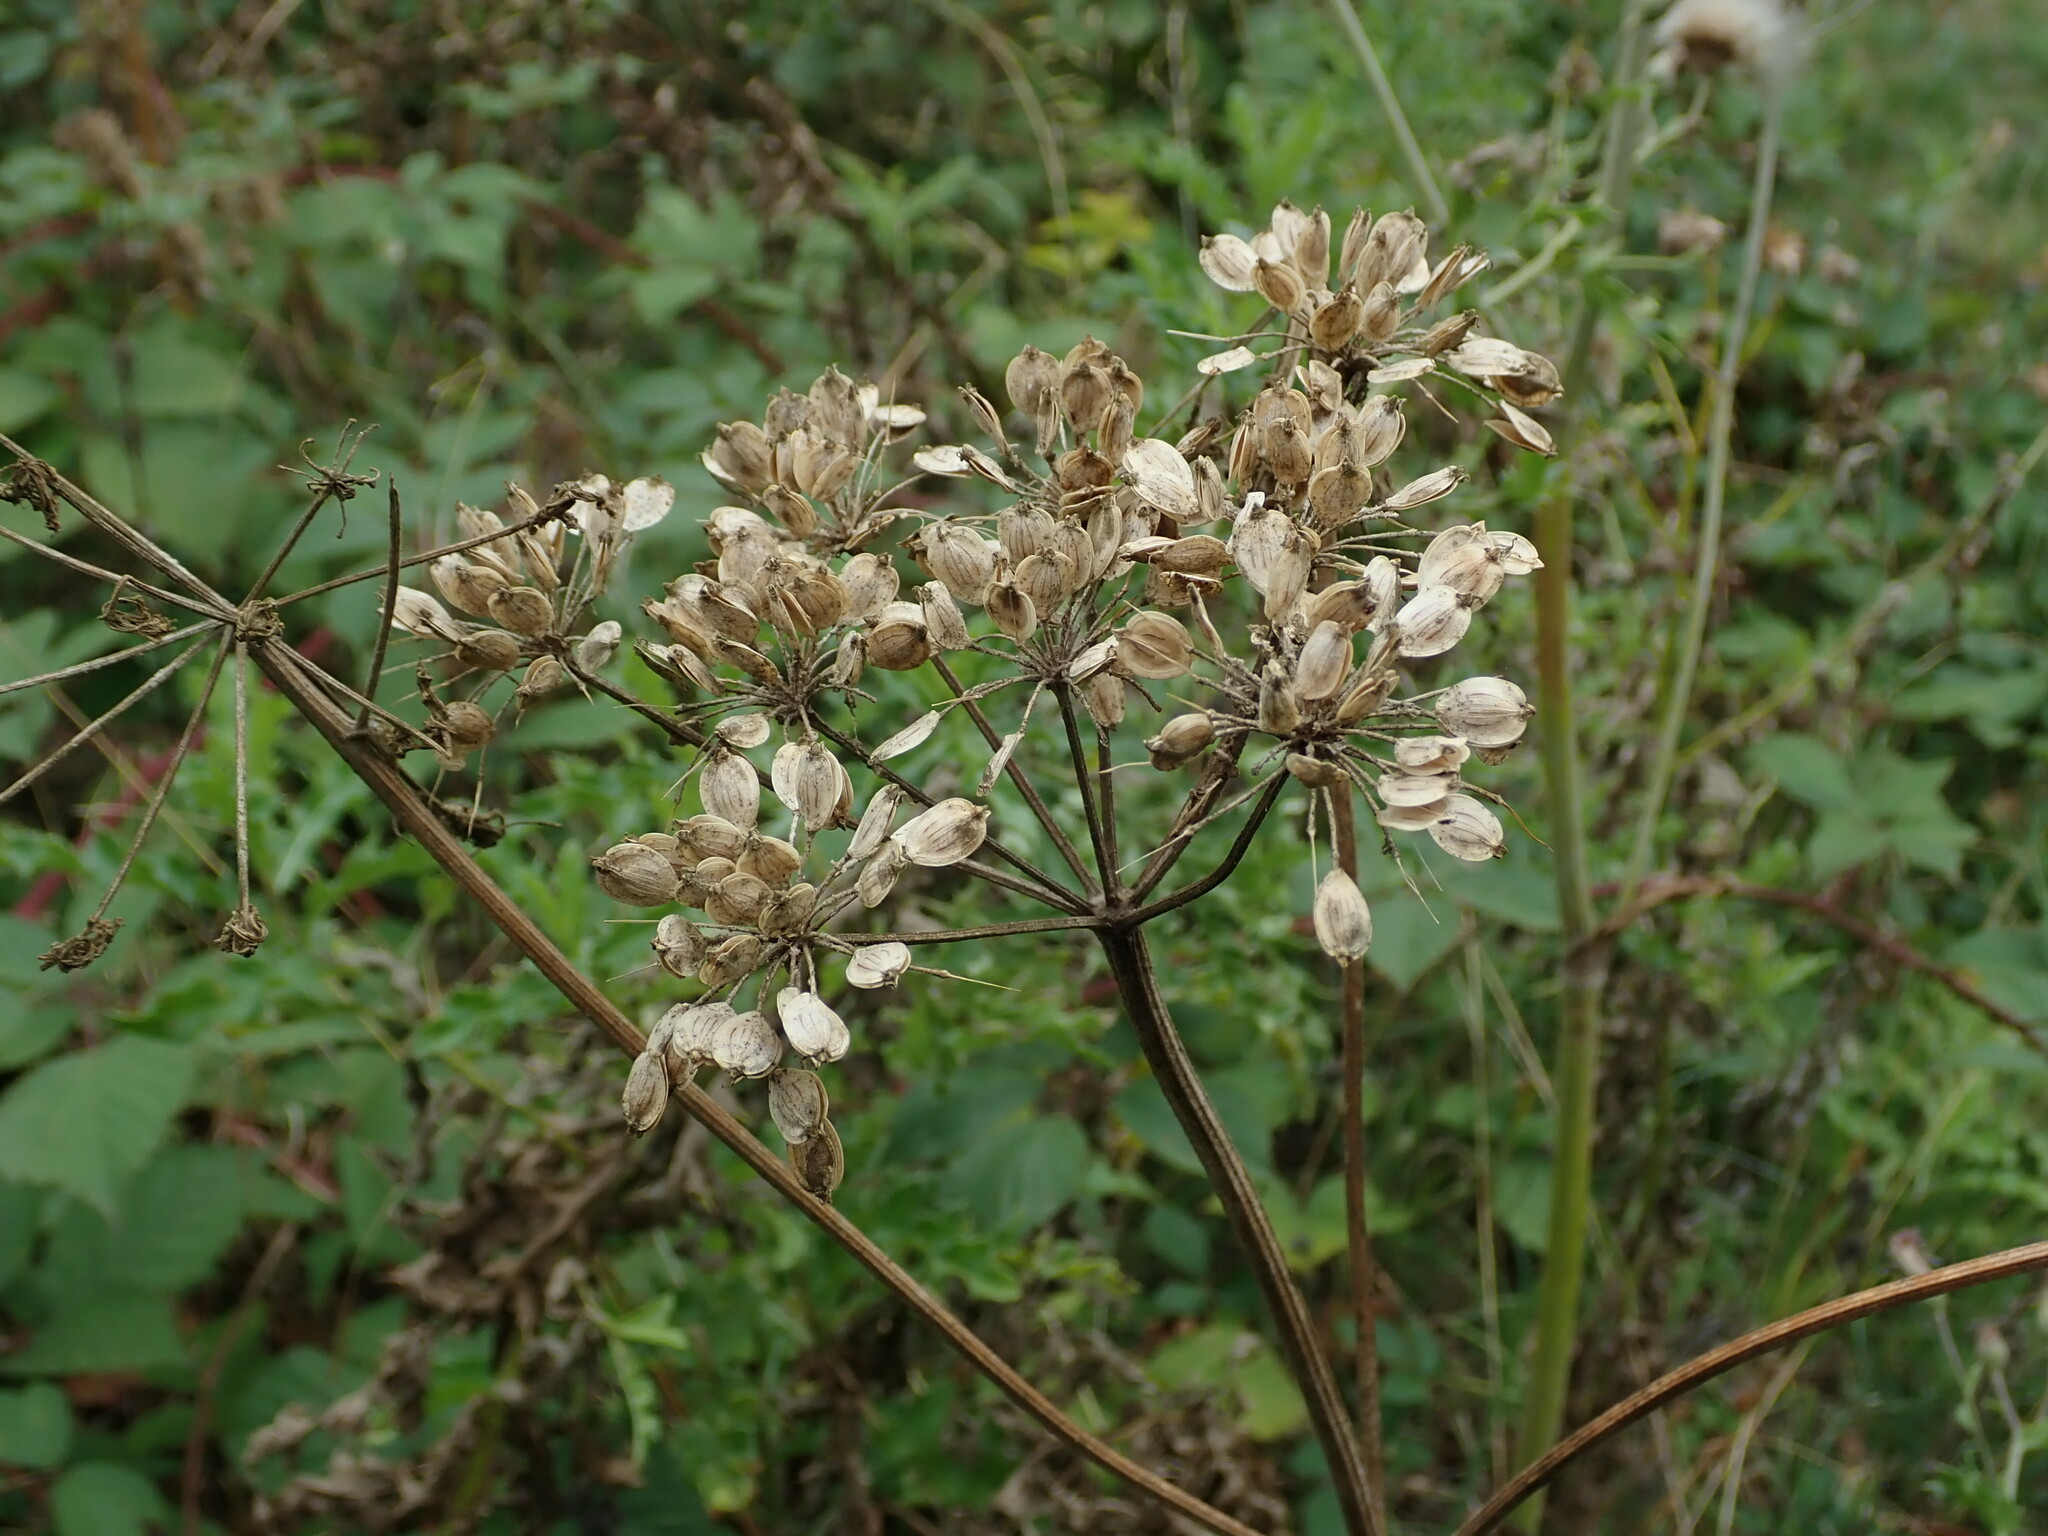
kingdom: Plantae
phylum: Tracheophyta
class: Magnoliopsida
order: Apiales
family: Apiaceae
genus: Heracleum
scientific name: Heracleum sphondylium
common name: Hogweed
